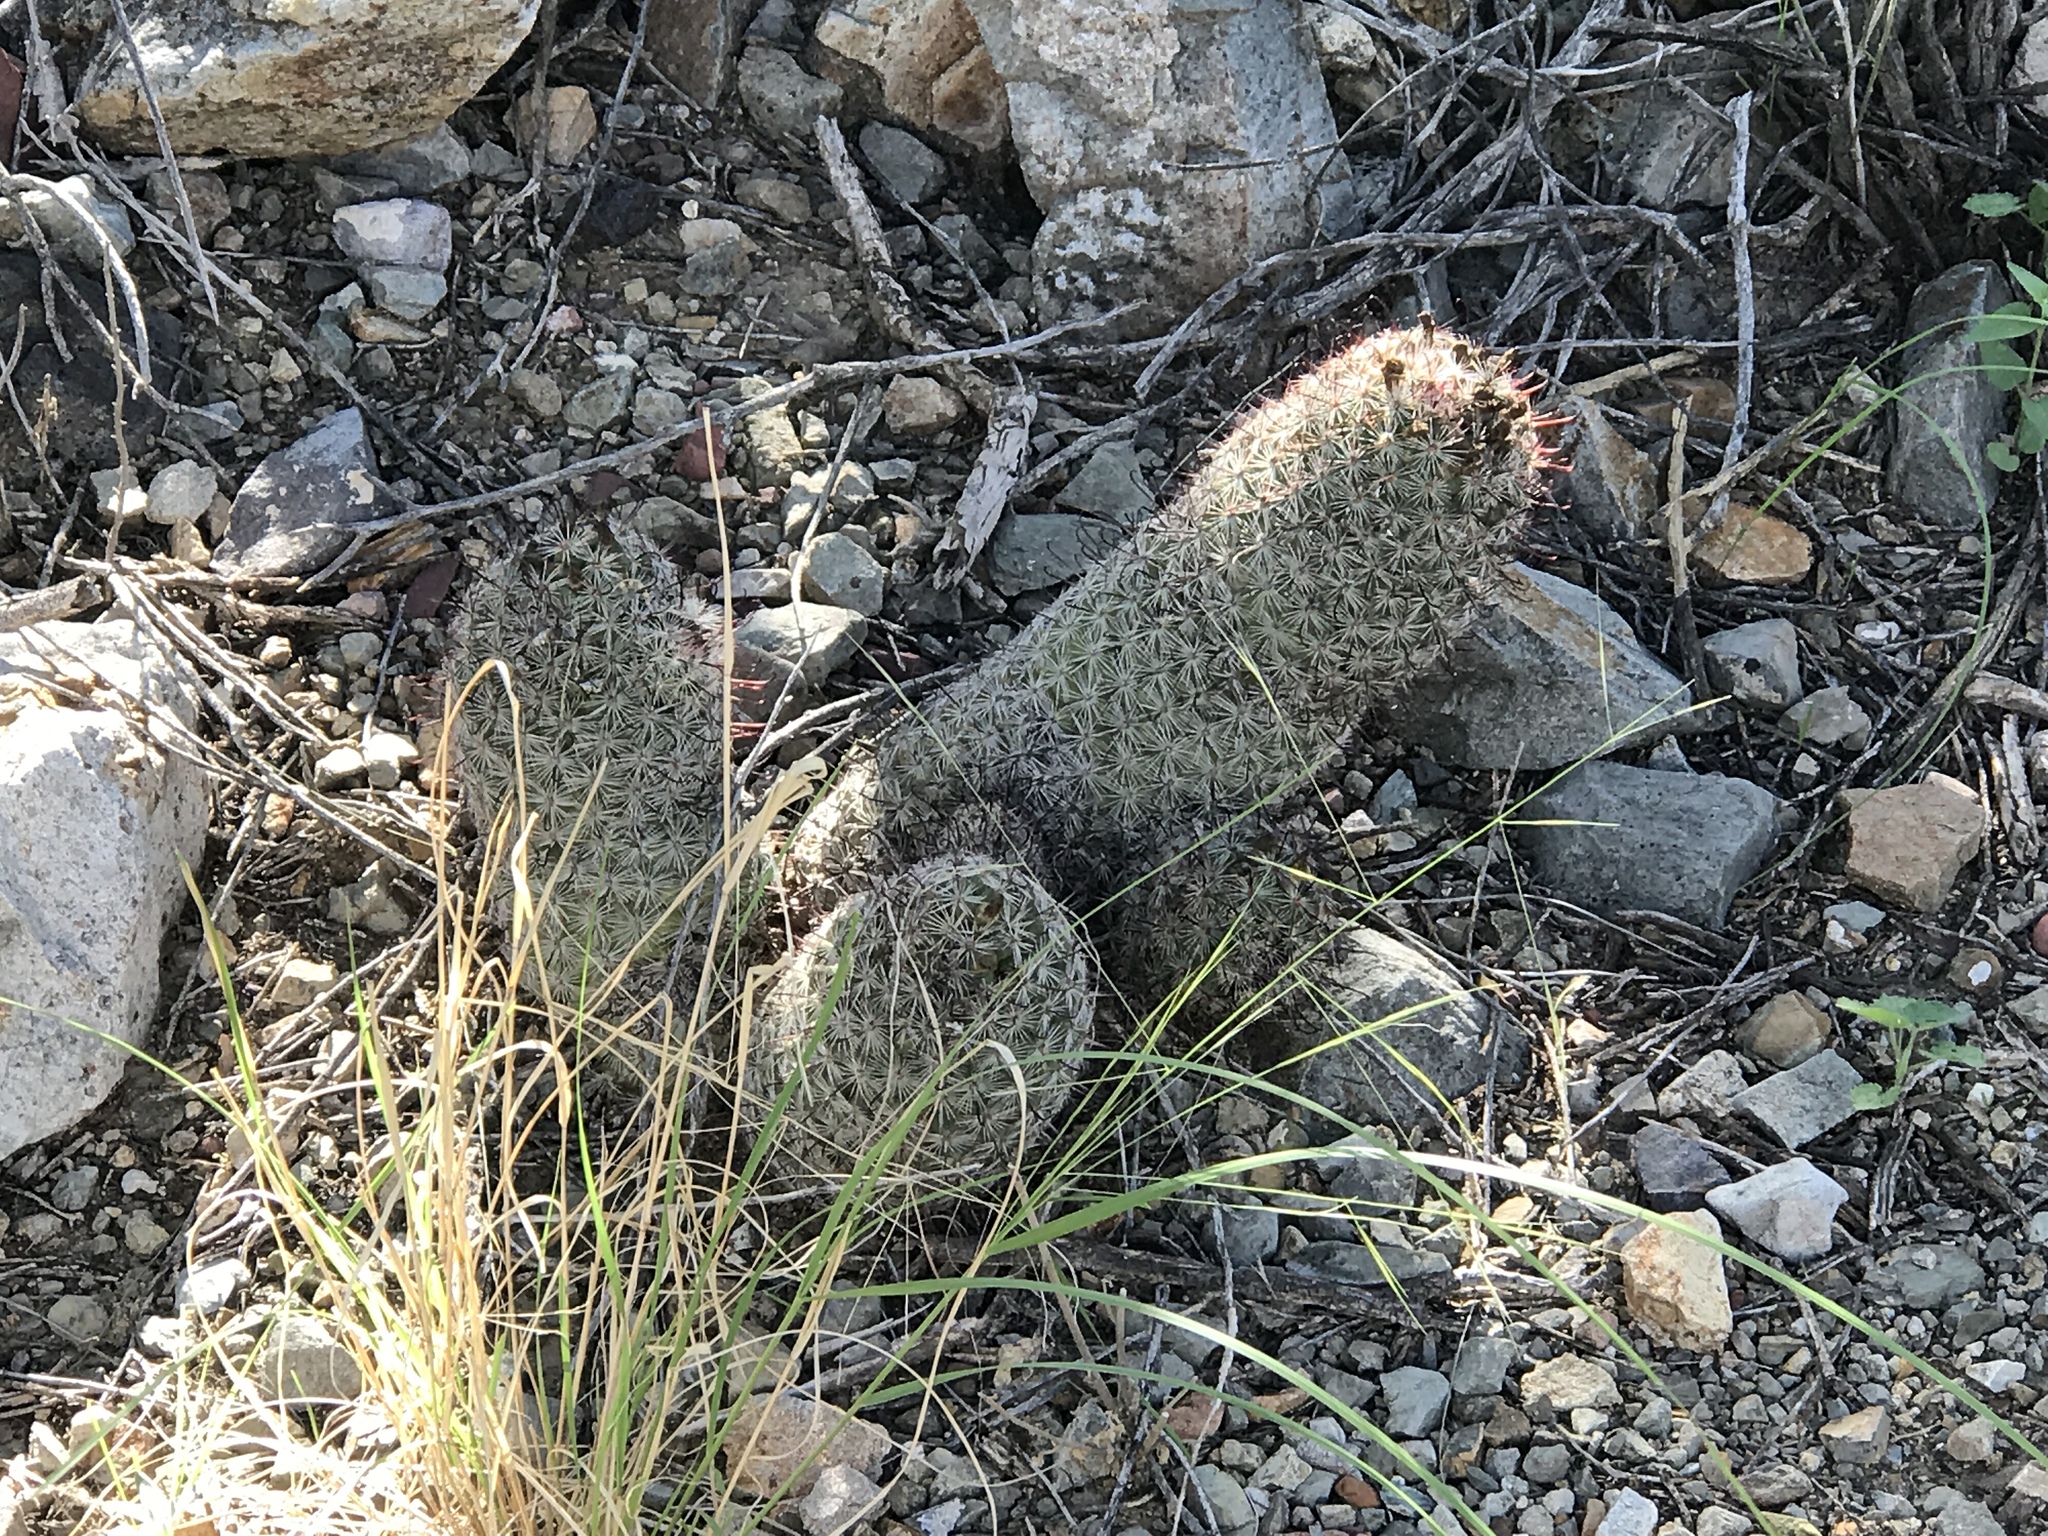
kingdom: Plantae
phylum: Tracheophyta
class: Magnoliopsida
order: Caryophyllales
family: Cactaceae
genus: Cochemiea
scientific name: Cochemiea grahamii
